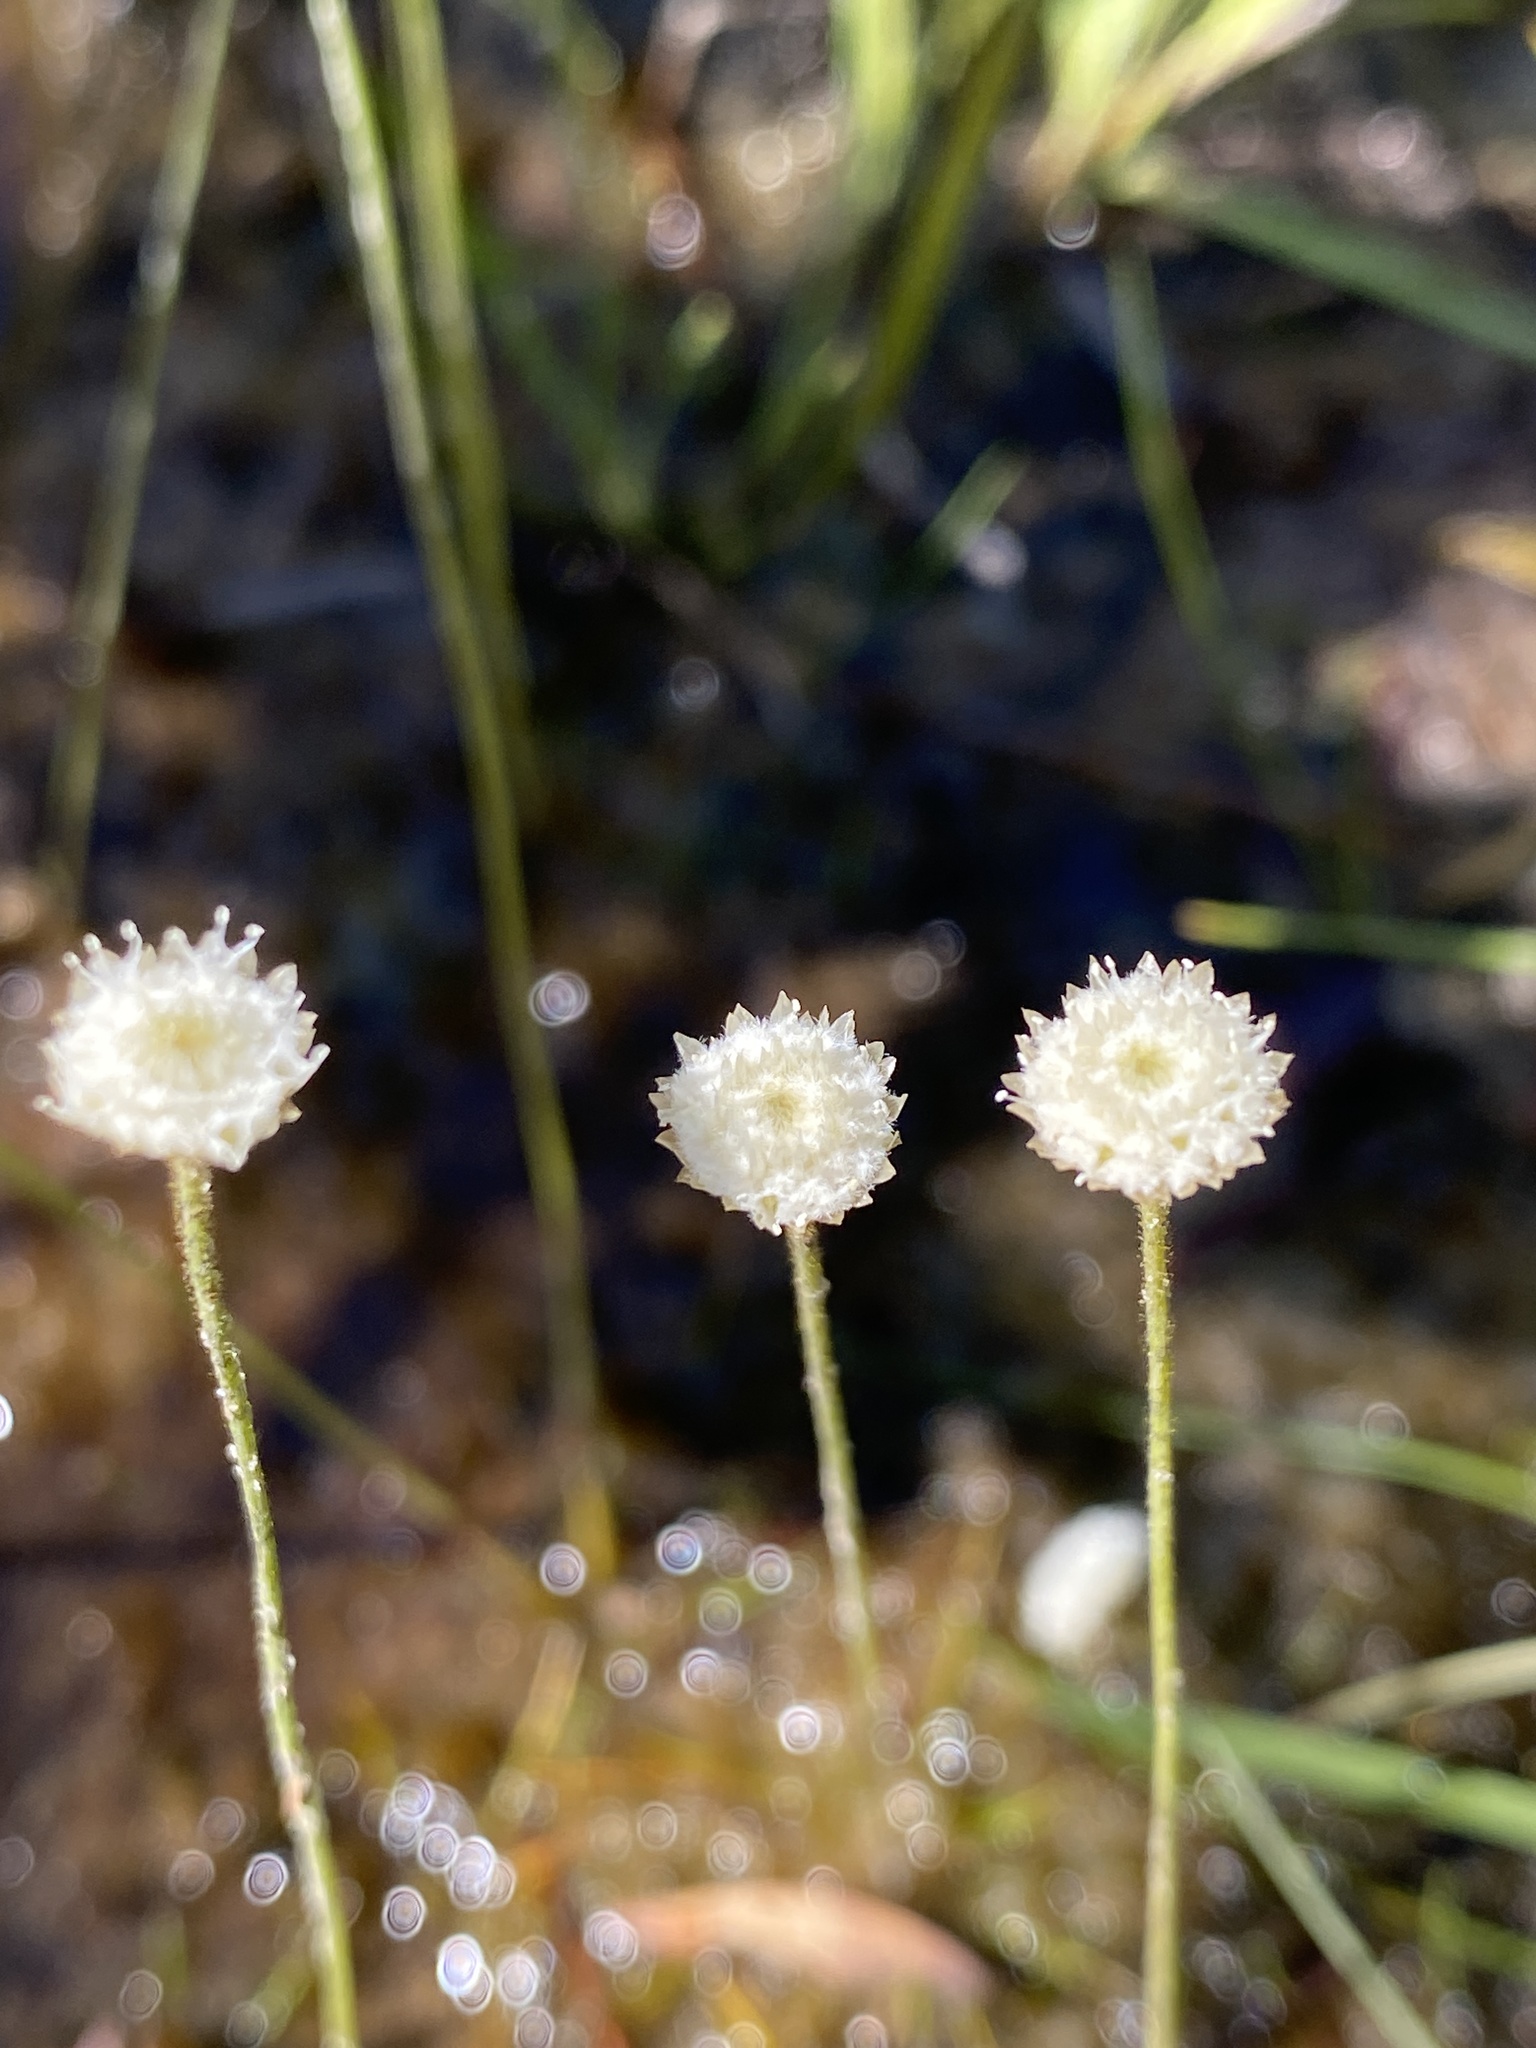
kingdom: Plantae
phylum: Tracheophyta
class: Liliopsida
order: Poales
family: Eriocaulaceae
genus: Syngonanthus
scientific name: Syngonanthus flavidulus
